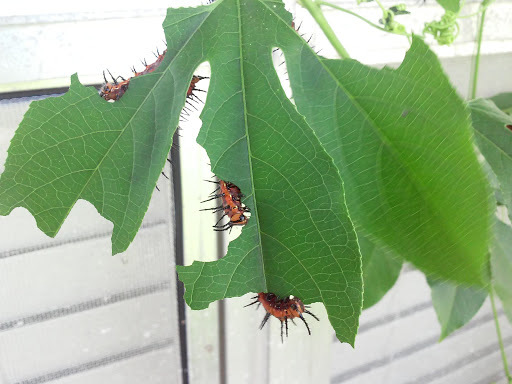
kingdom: Animalia
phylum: Arthropoda
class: Insecta
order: Lepidoptera
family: Nymphalidae
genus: Dione
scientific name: Dione vanillae
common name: Gulf fritillary
